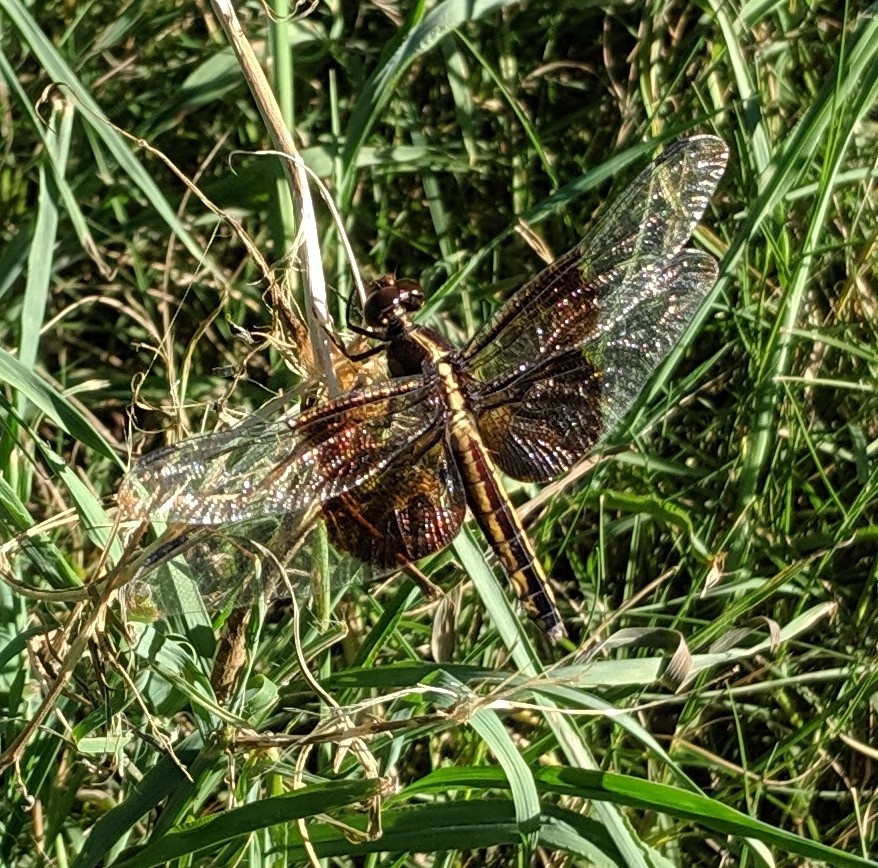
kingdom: Animalia
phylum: Arthropoda
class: Insecta
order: Odonata
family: Libellulidae
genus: Libellula
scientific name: Libellula luctuosa
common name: Widow skimmer
